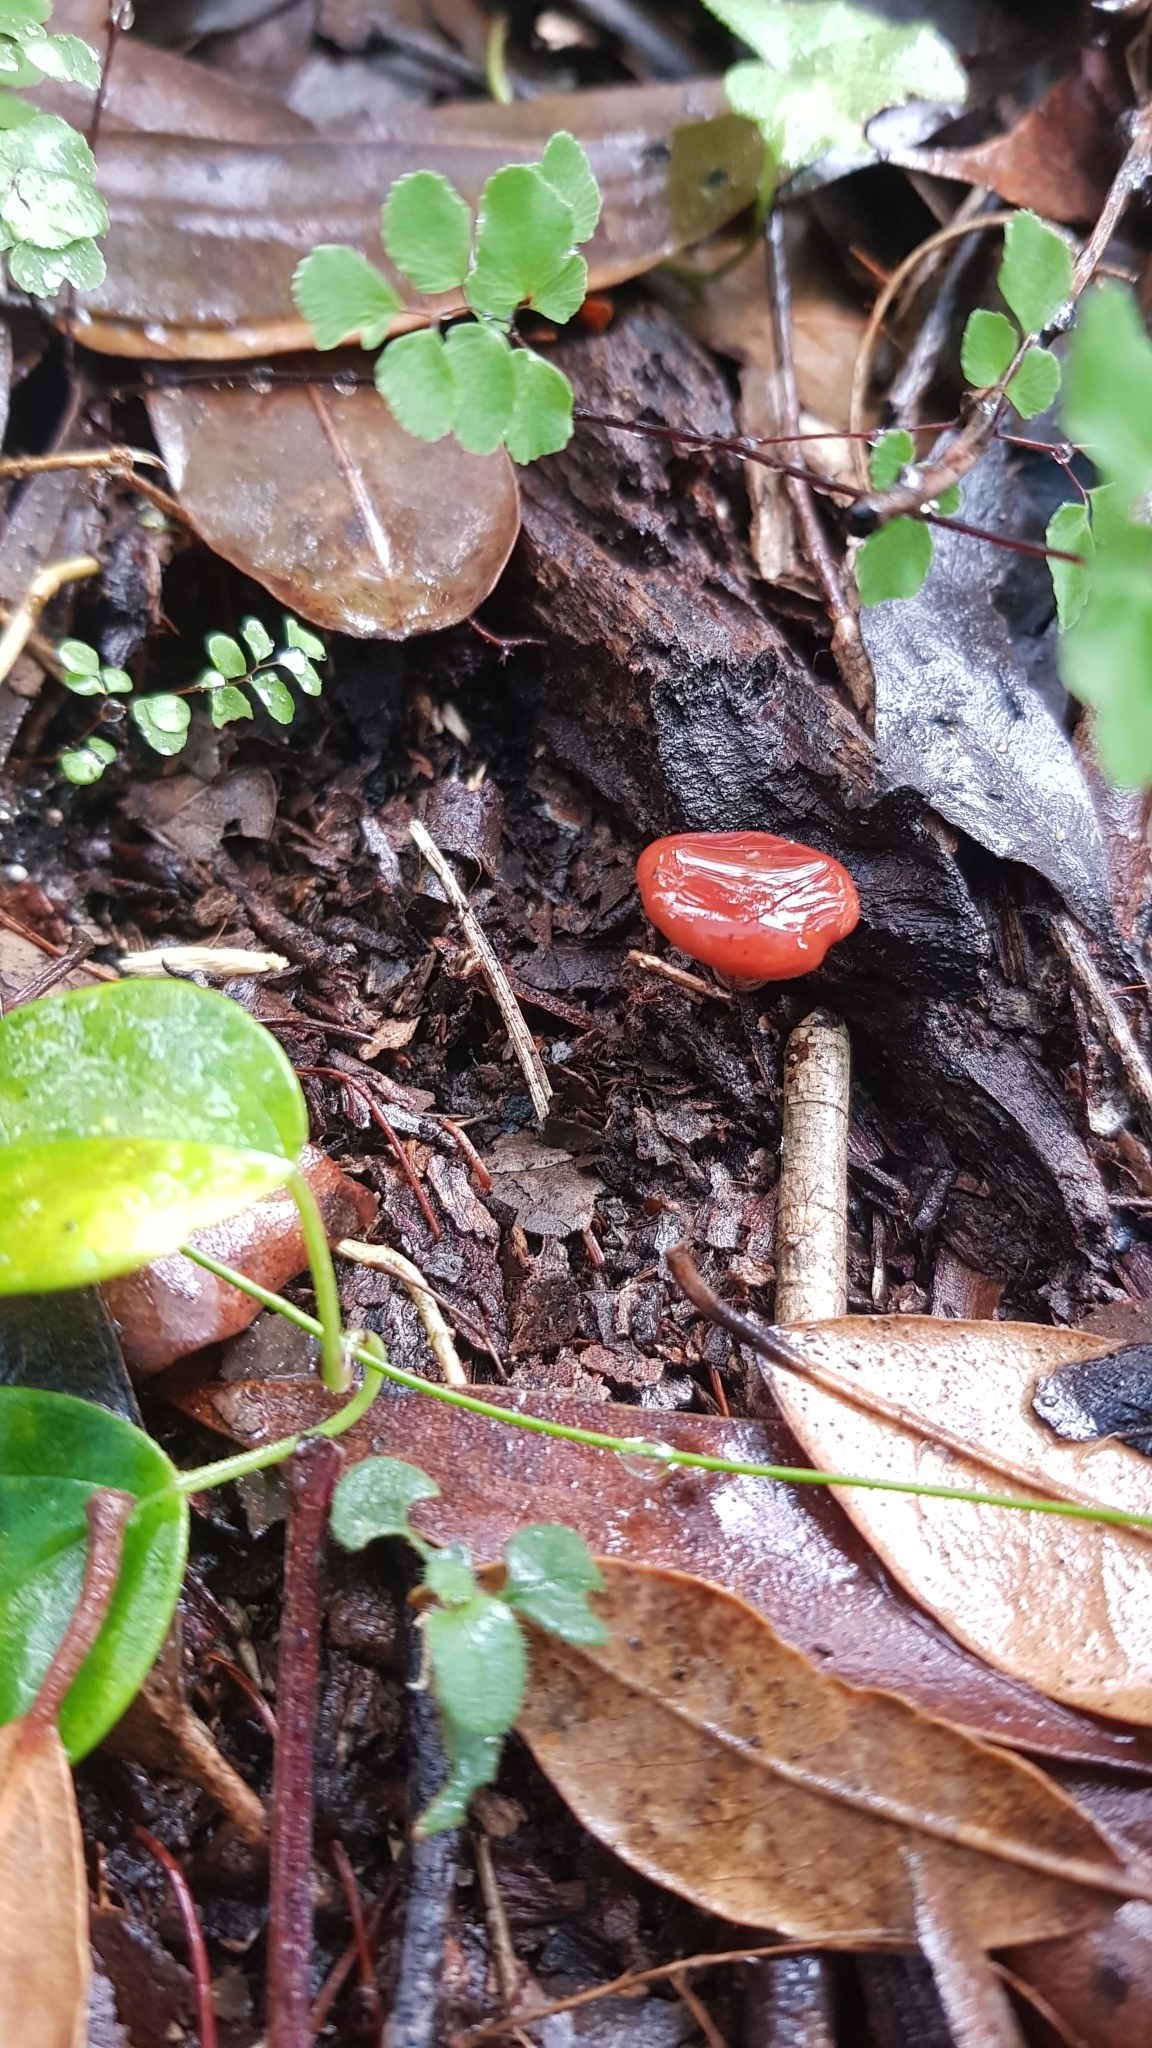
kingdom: Fungi
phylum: Basidiomycota
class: Agaricomycetes
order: Russulales
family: Russulaceae
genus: Lactarius
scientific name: Lactarius eucalypti
